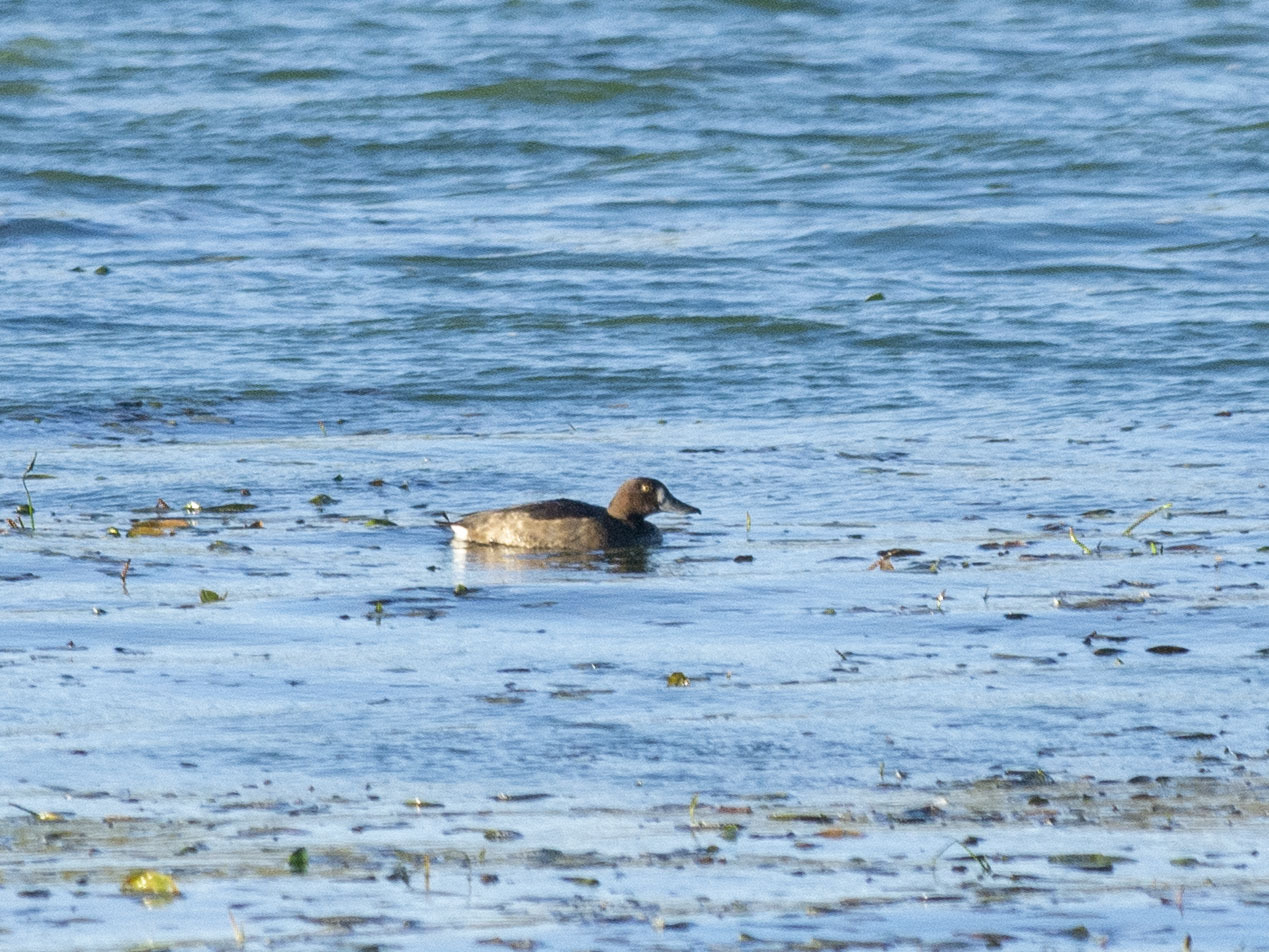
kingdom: Animalia
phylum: Chordata
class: Aves
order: Anseriformes
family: Anatidae
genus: Aythya
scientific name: Aythya fuligula
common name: Tufted duck
